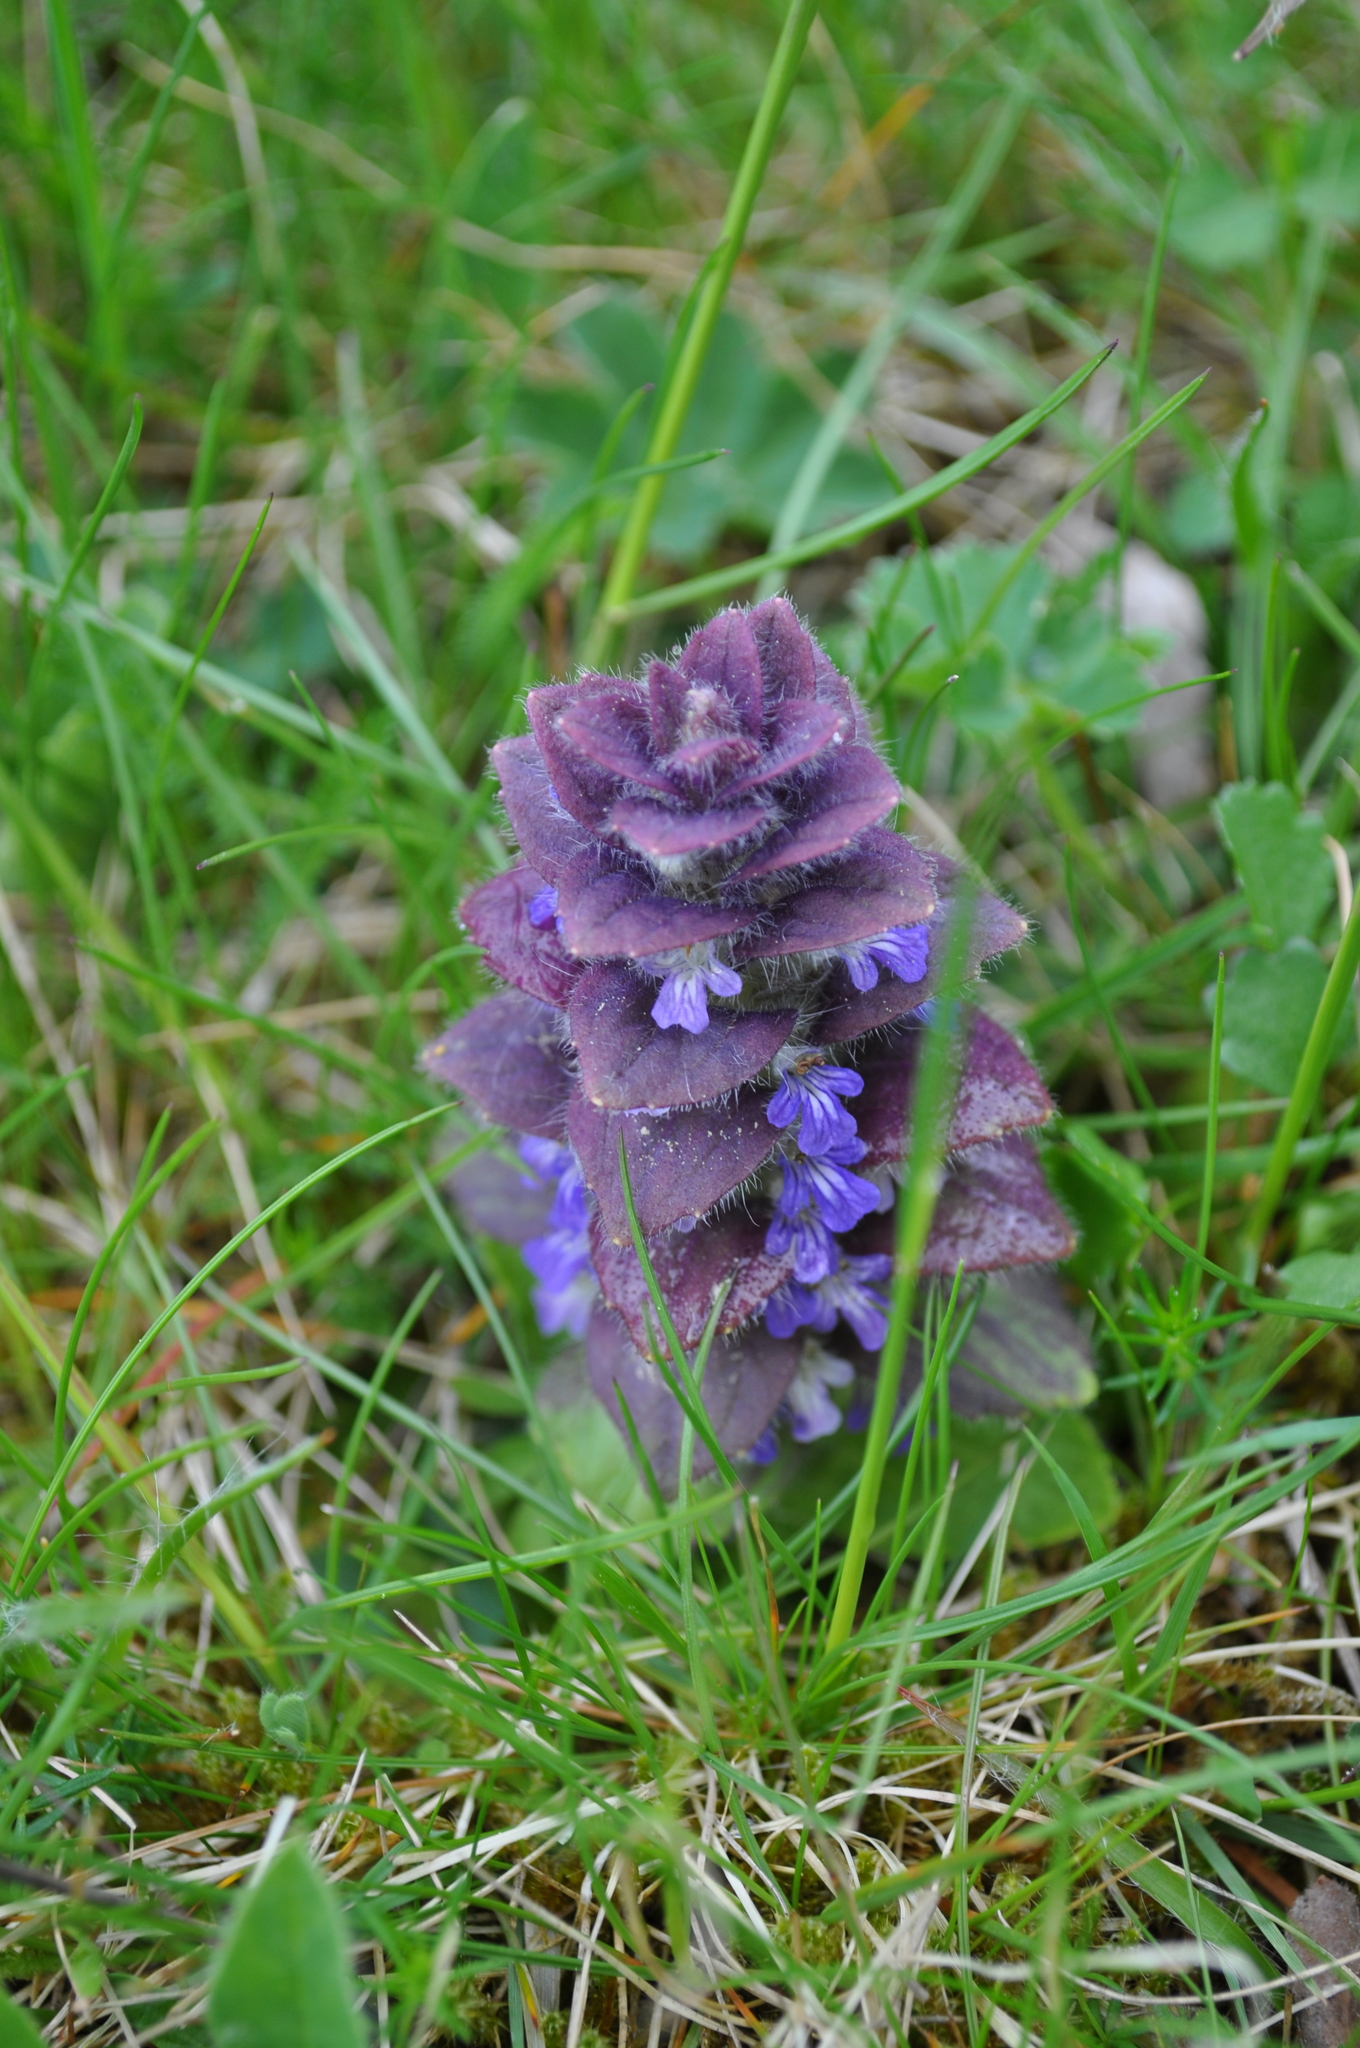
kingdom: Plantae
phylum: Tracheophyta
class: Magnoliopsida
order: Lamiales
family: Lamiaceae
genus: Ajuga
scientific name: Ajuga pyramidalis
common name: Pyramid bugle
